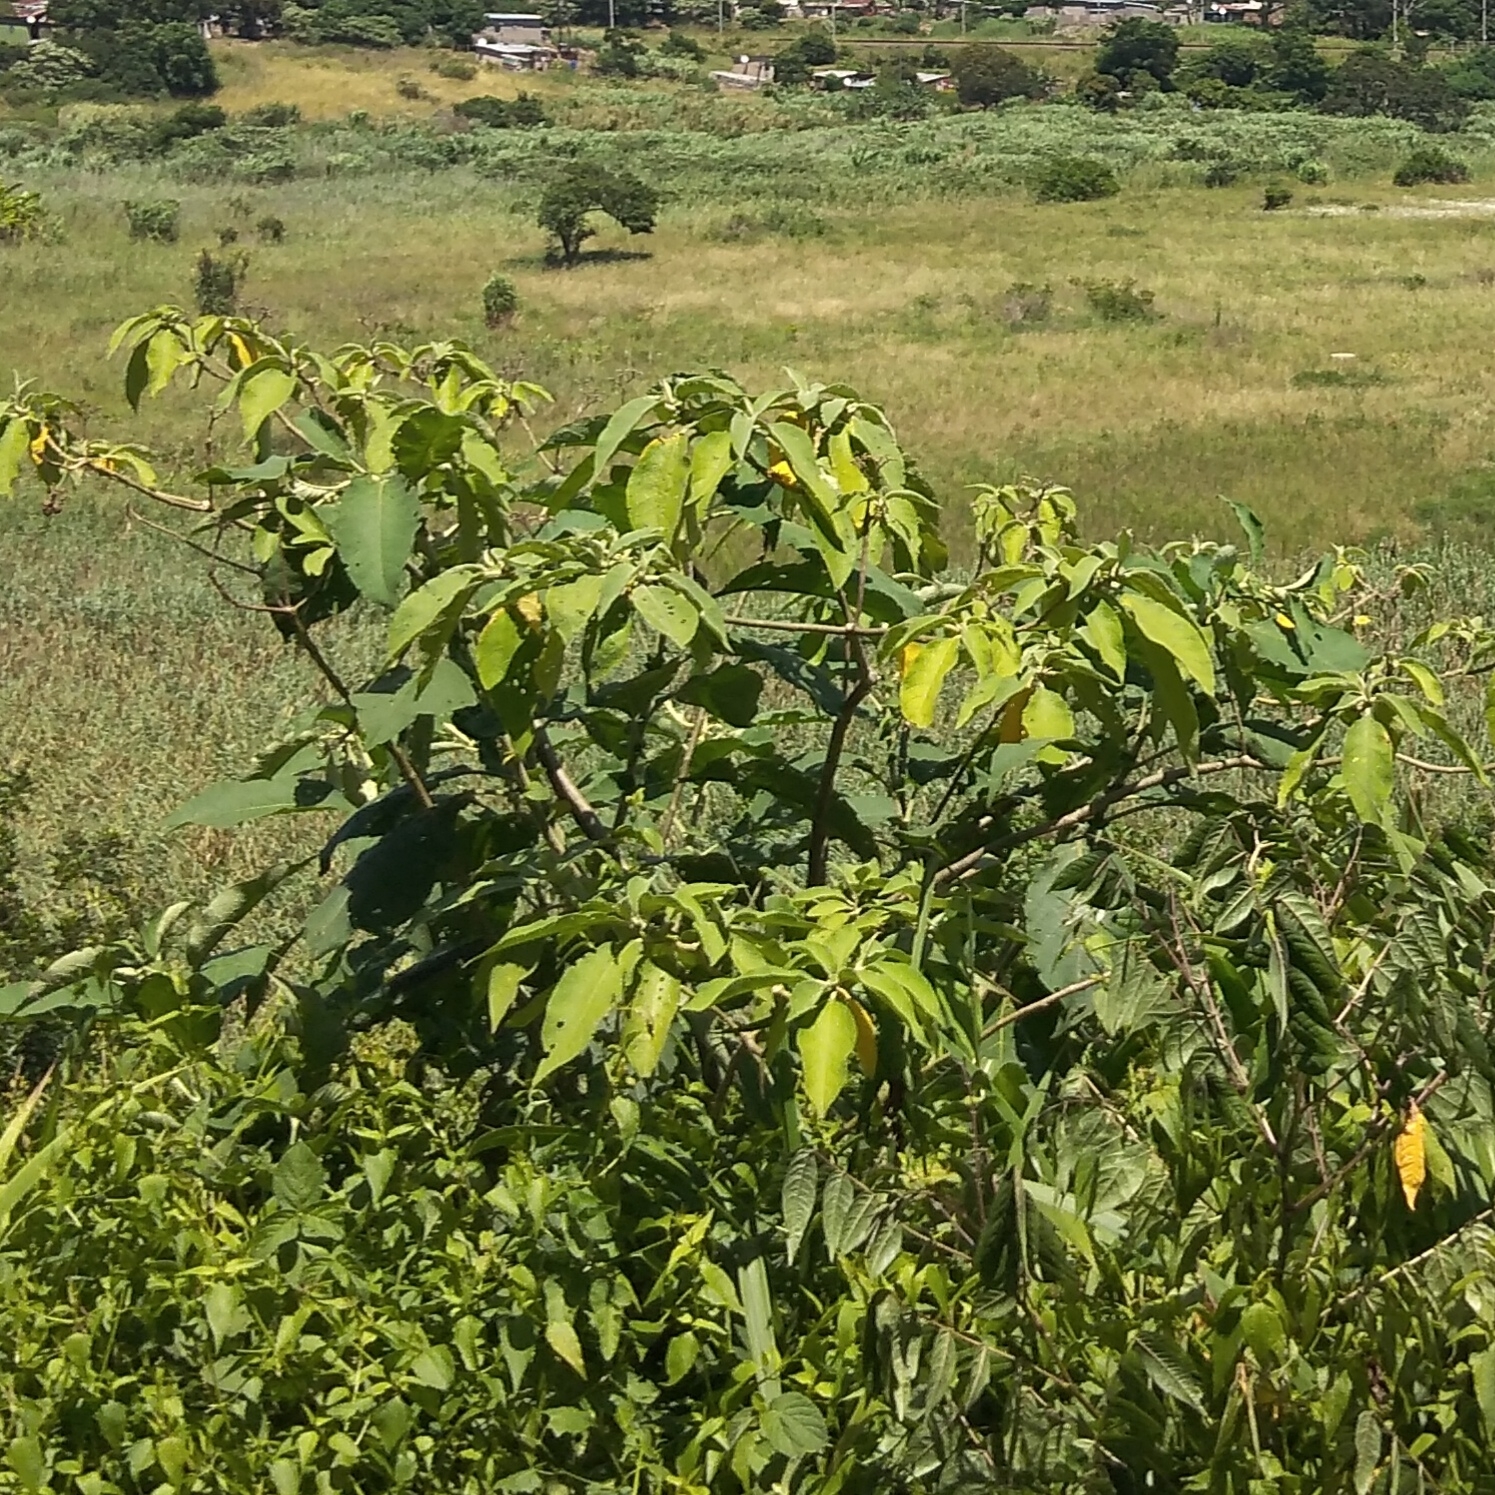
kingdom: Plantae
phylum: Tracheophyta
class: Magnoliopsida
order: Solanales
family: Solanaceae
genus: Solanum
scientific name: Solanum mauritianum
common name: Earleaf nightshade
